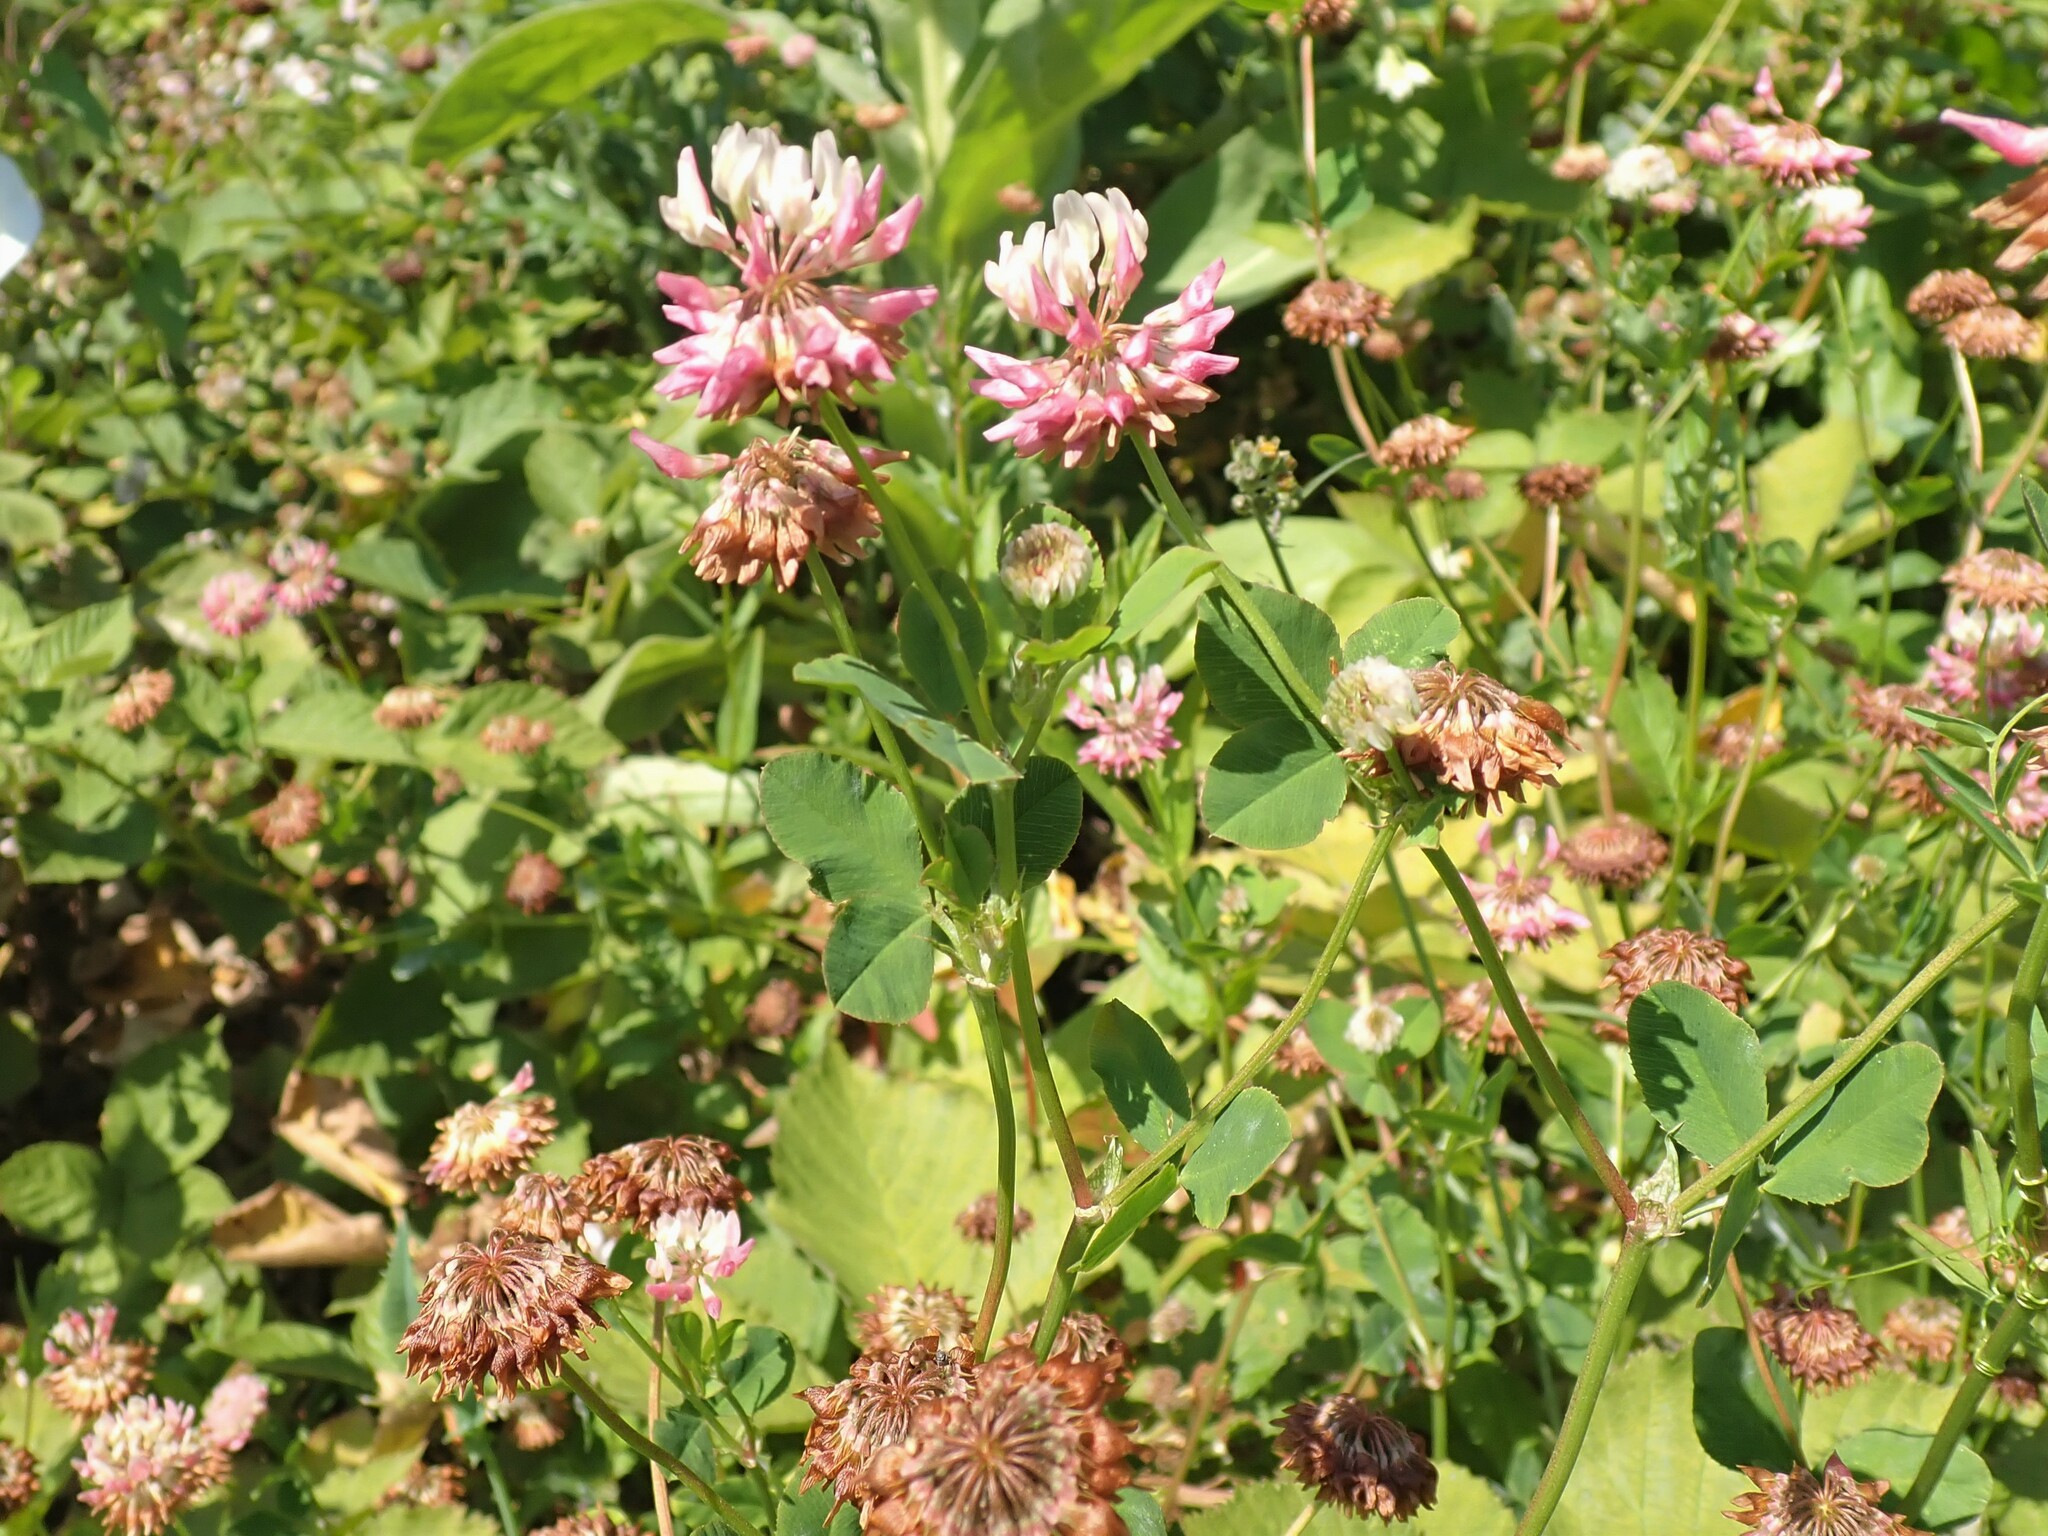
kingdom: Plantae
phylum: Tracheophyta
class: Magnoliopsida
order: Fabales
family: Fabaceae
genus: Trifolium
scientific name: Trifolium hybridum
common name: Alsike clover
